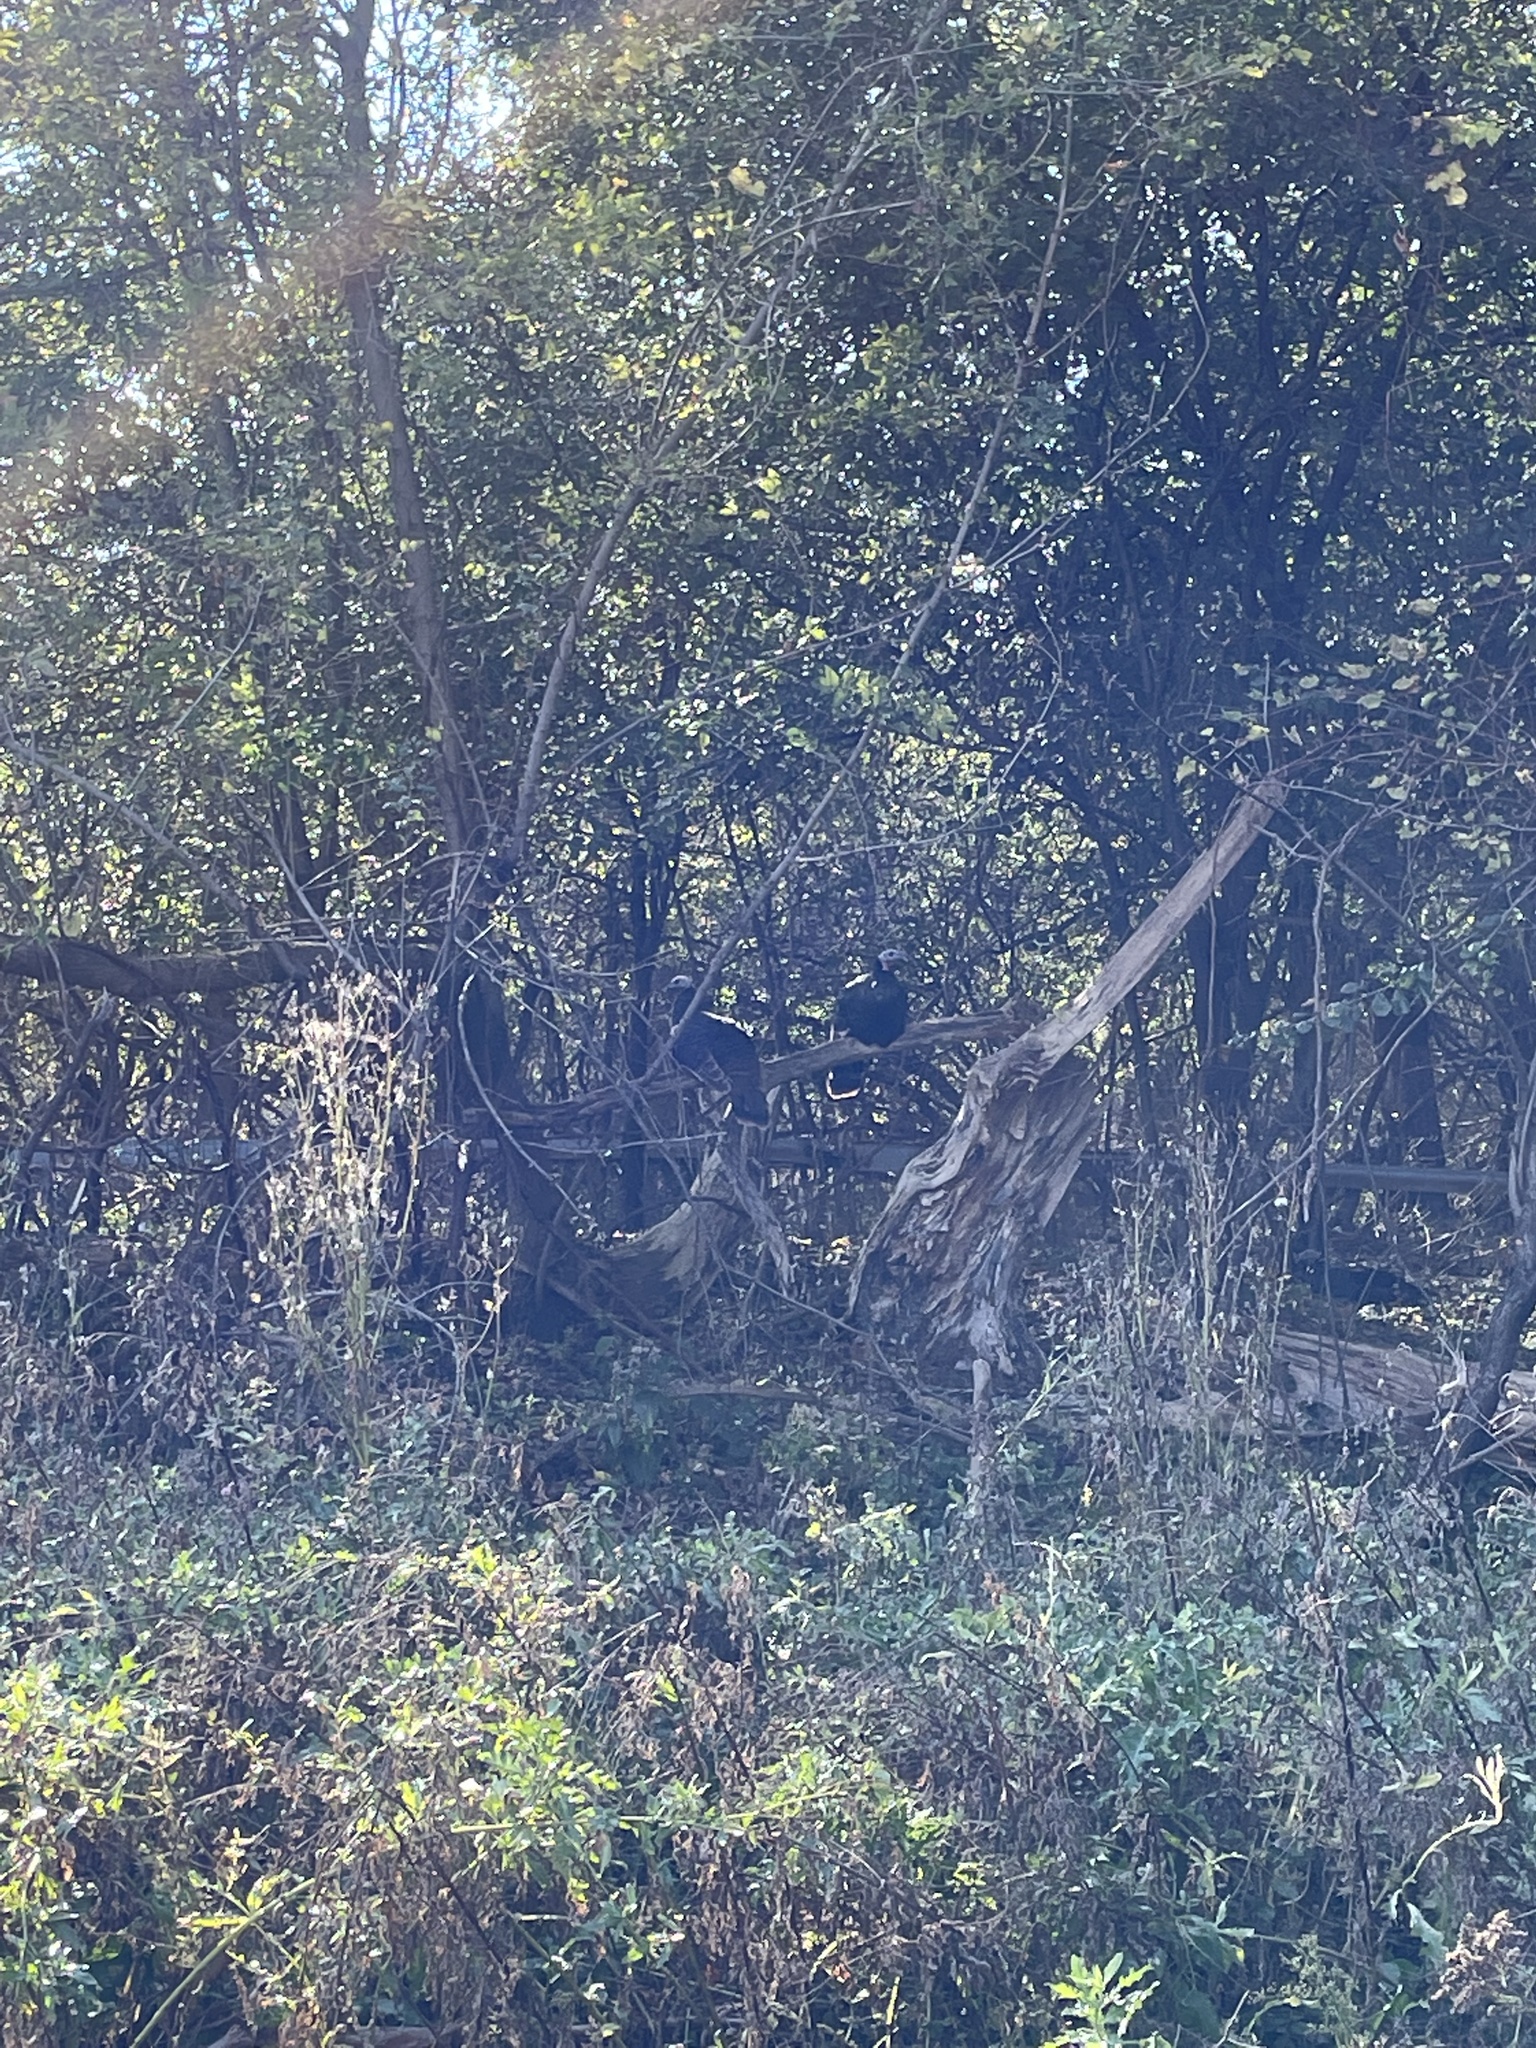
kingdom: Animalia
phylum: Chordata
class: Aves
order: Galliformes
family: Phasianidae
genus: Meleagris
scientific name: Meleagris gallopavo
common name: Wild turkey
